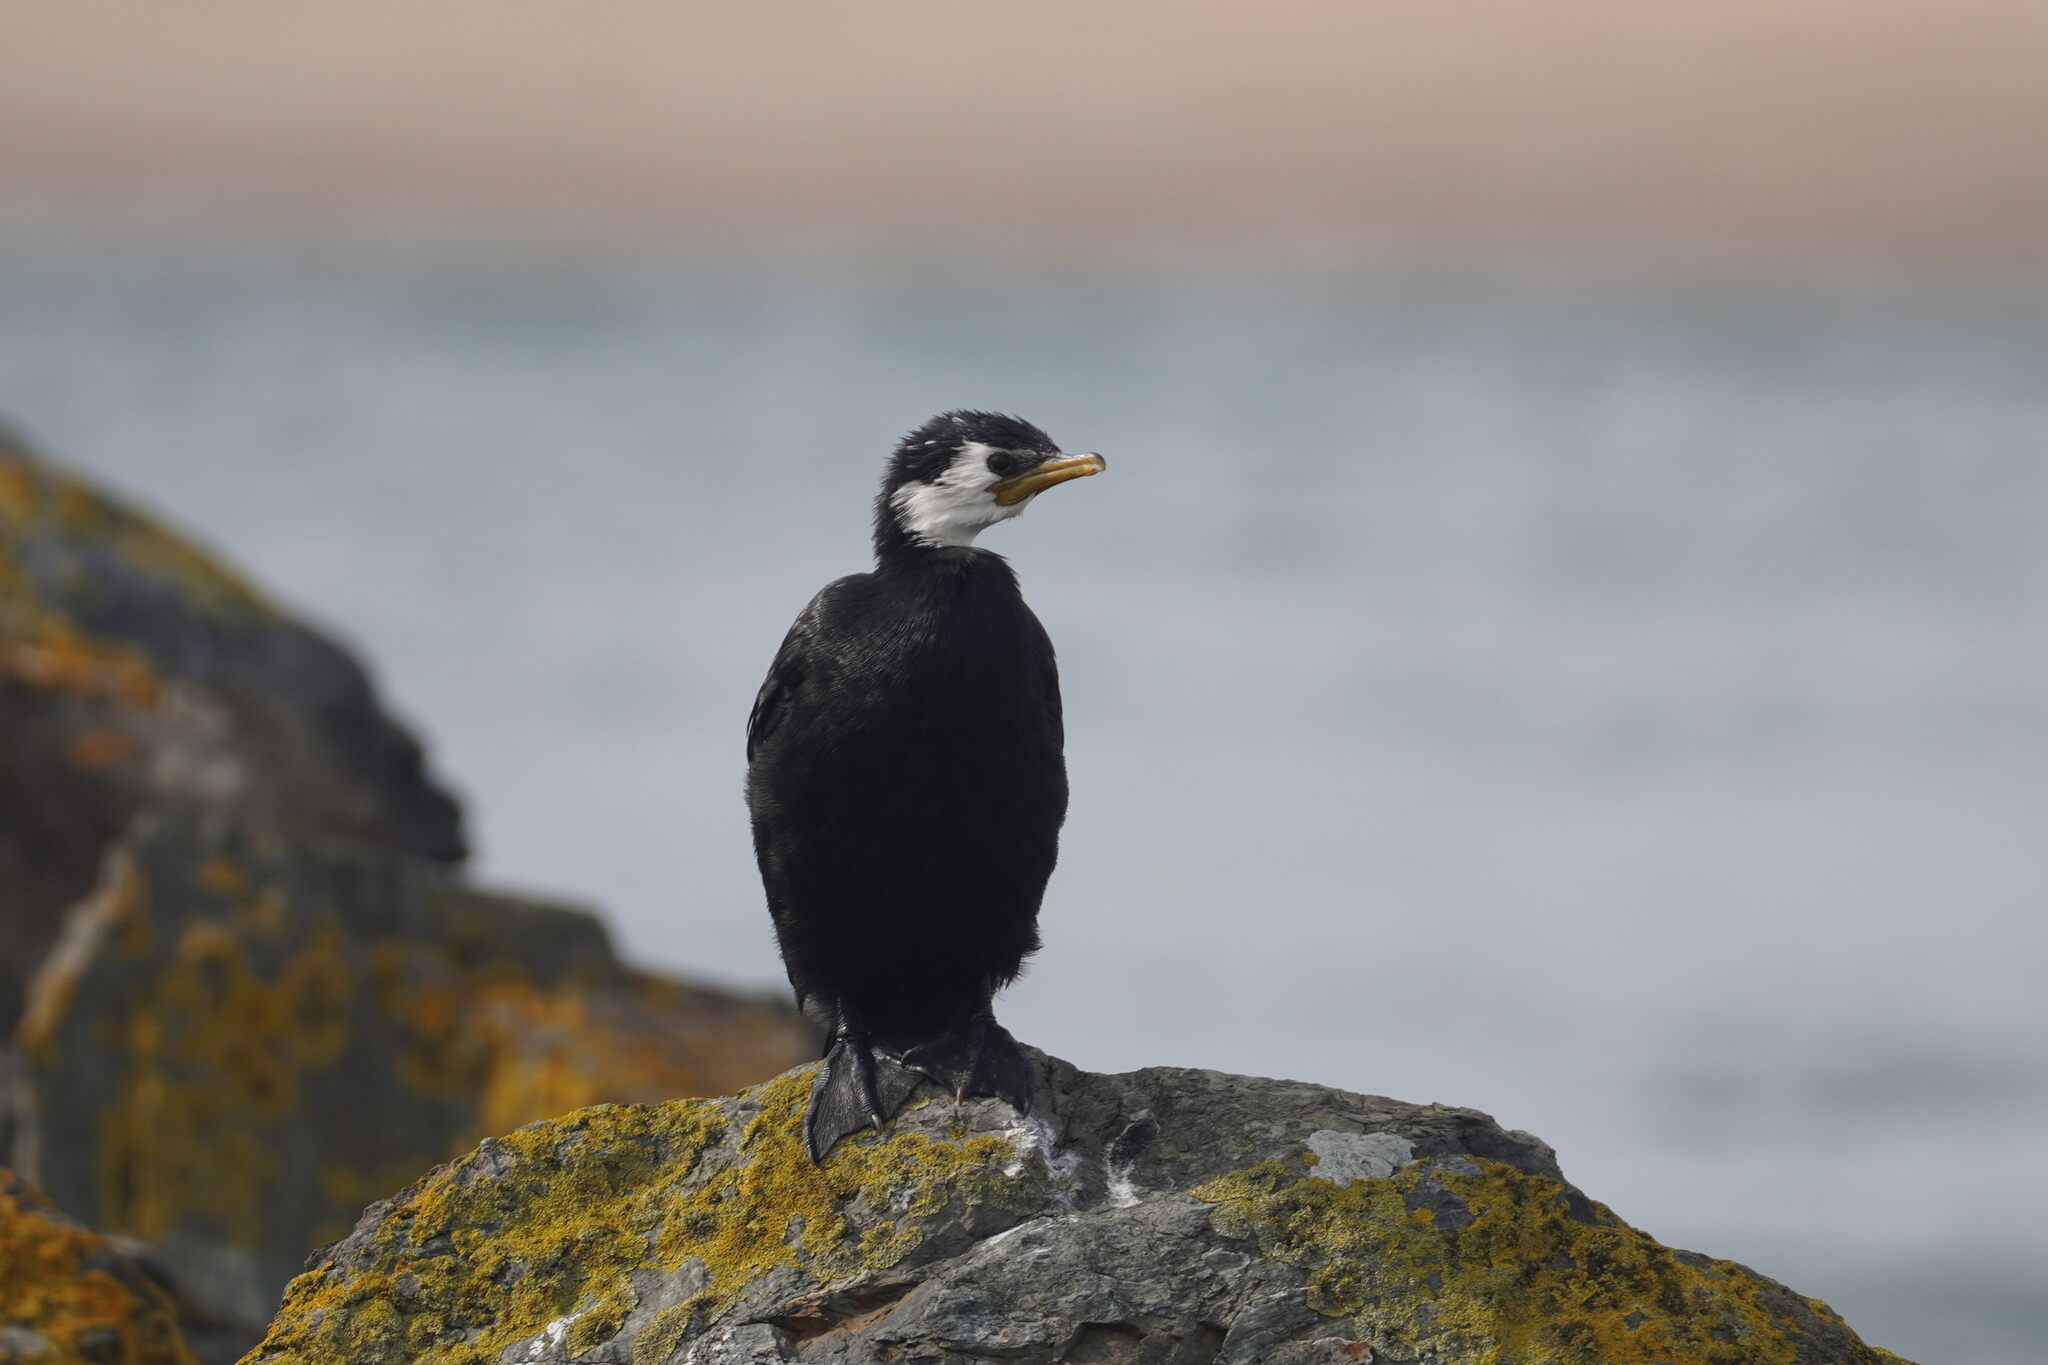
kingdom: Animalia
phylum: Chordata
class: Aves
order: Suliformes
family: Phalacrocoracidae
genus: Microcarbo
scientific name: Microcarbo melanoleucos
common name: Little pied cormorant
